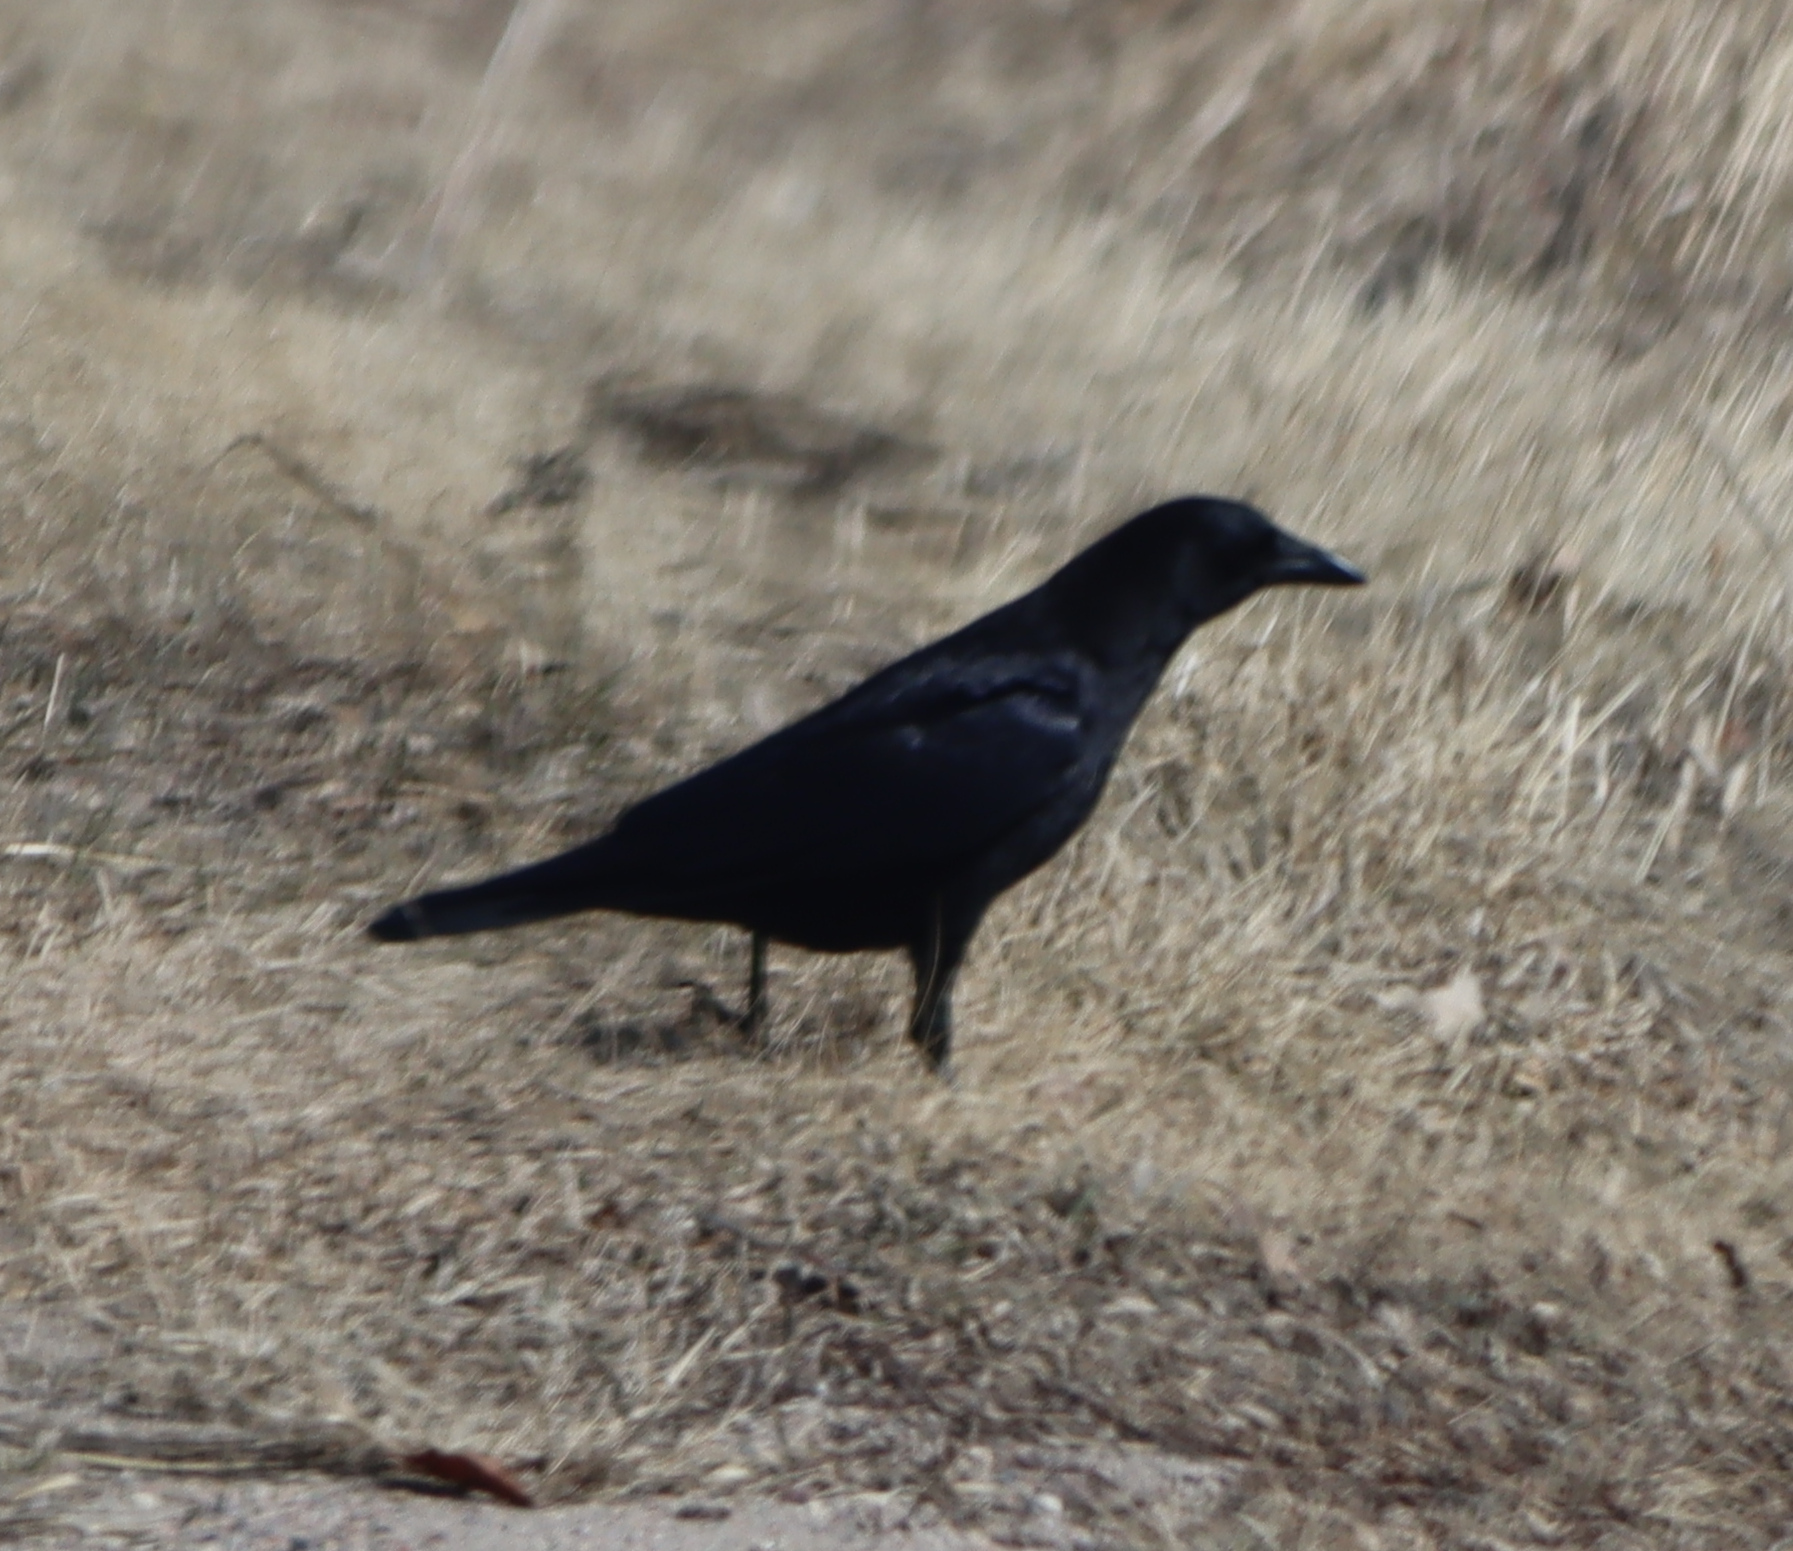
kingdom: Animalia
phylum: Chordata
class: Aves
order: Passeriformes
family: Corvidae
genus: Corvus
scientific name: Corvus brachyrhynchos
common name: American crow
